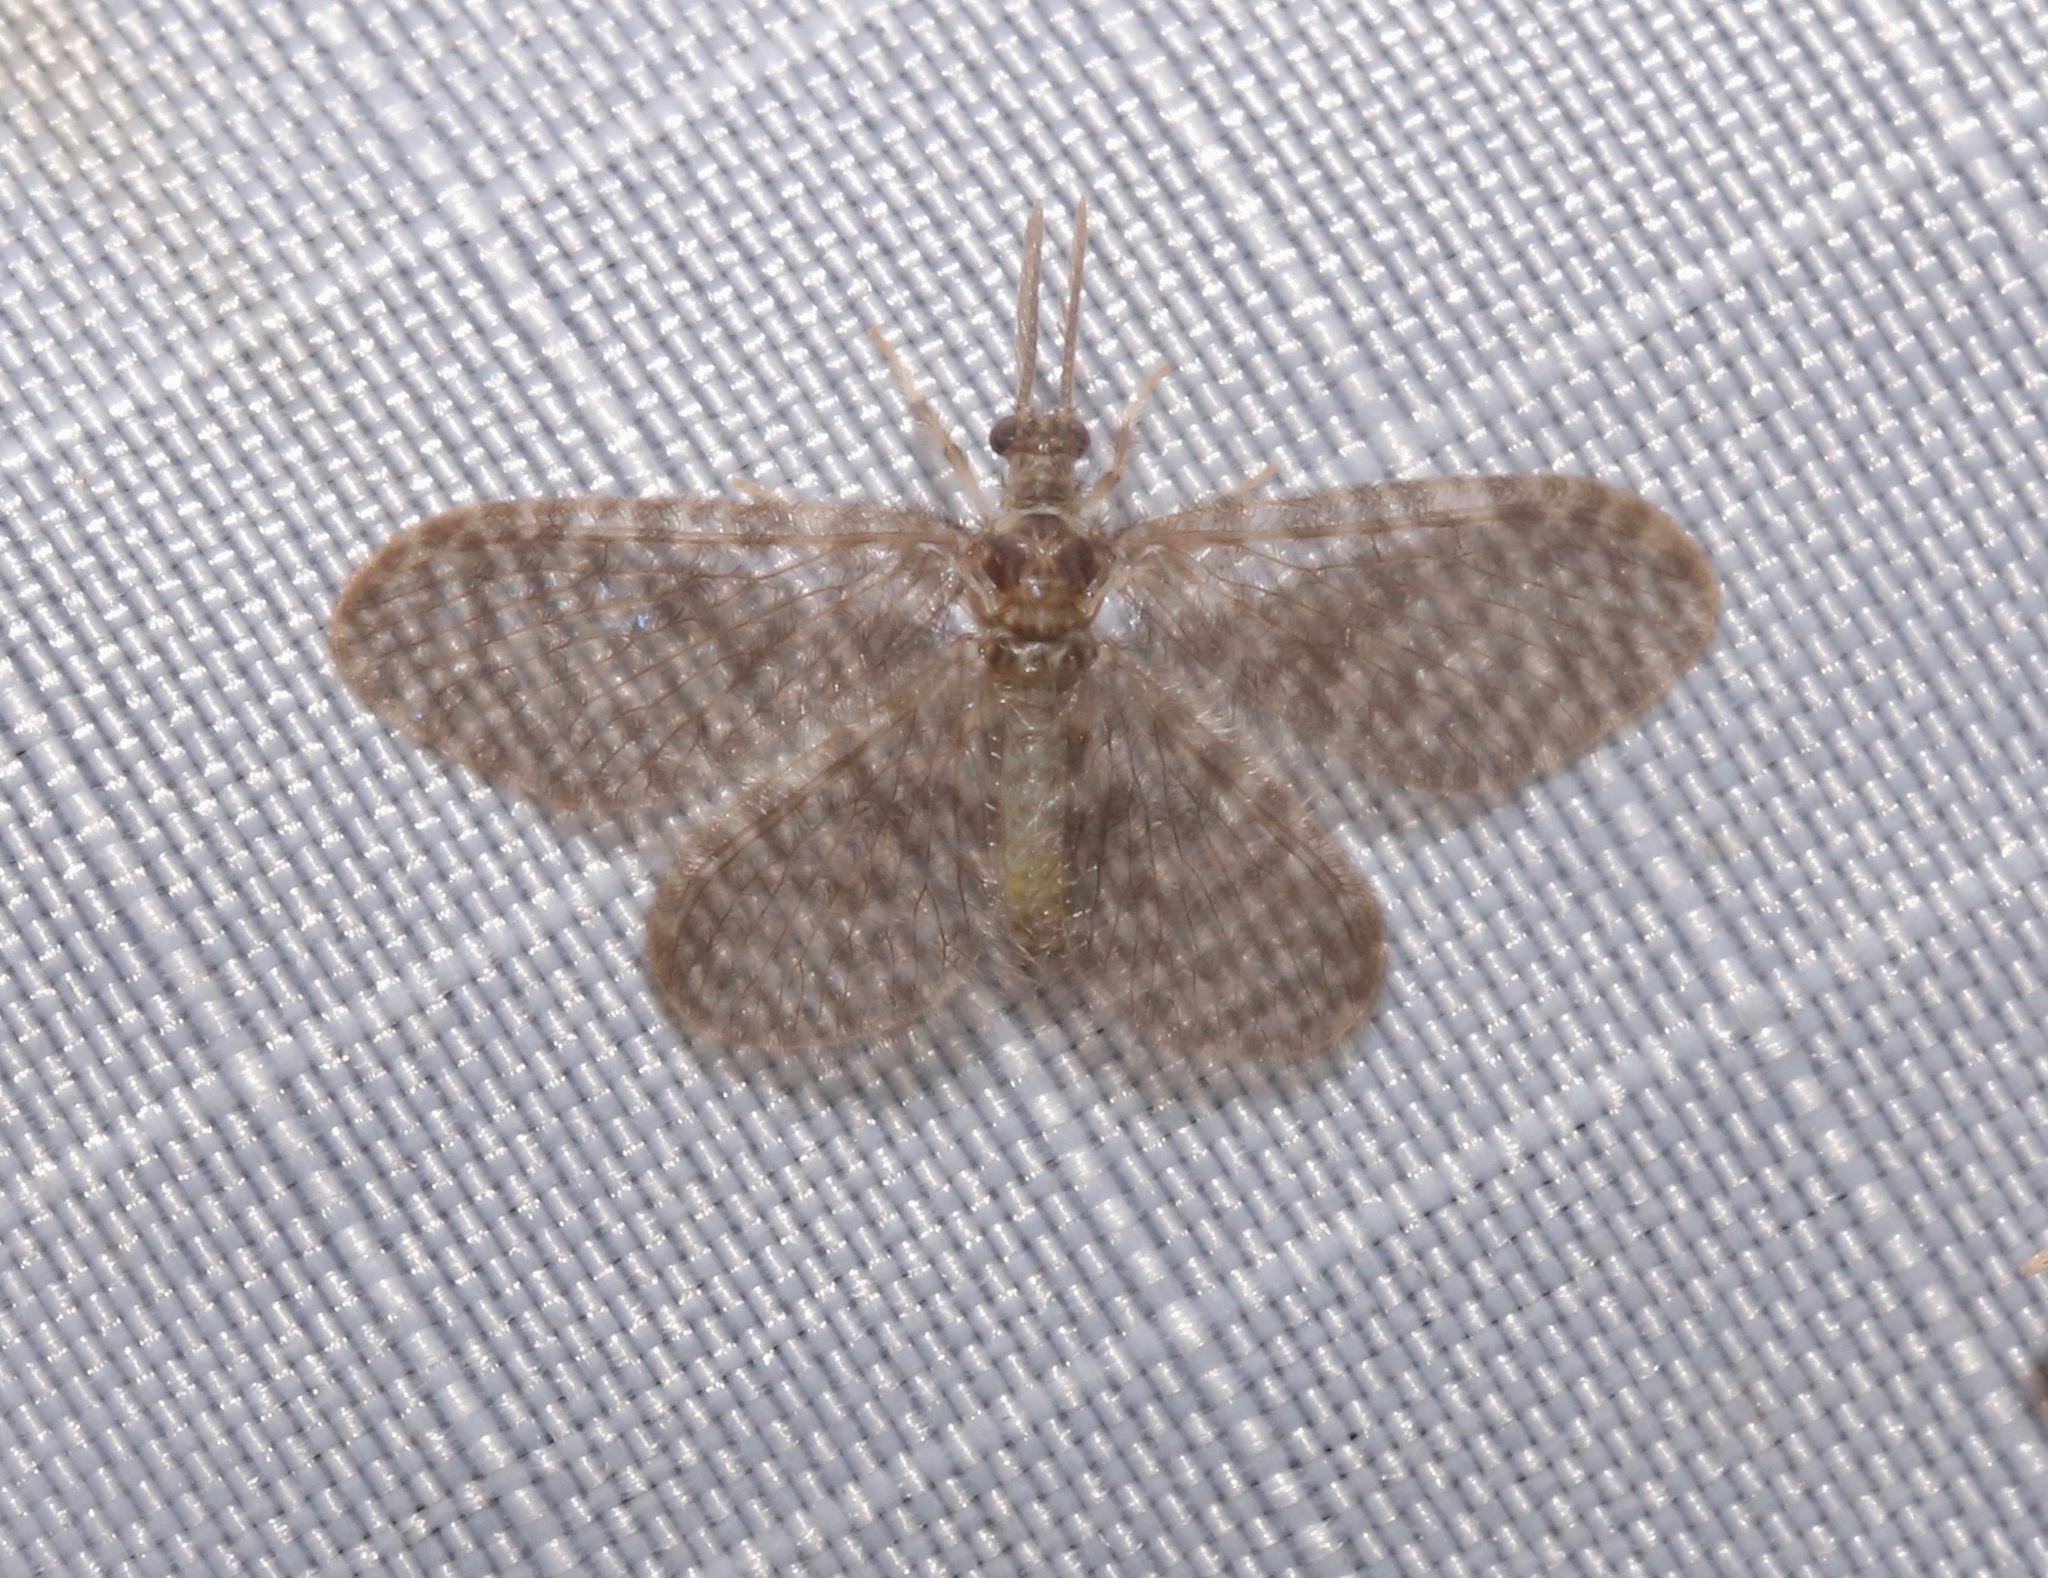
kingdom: Animalia
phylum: Arthropoda
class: Insecta
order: Neuroptera
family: Dilaridae
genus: Nallachius
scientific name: Nallachius americanus
